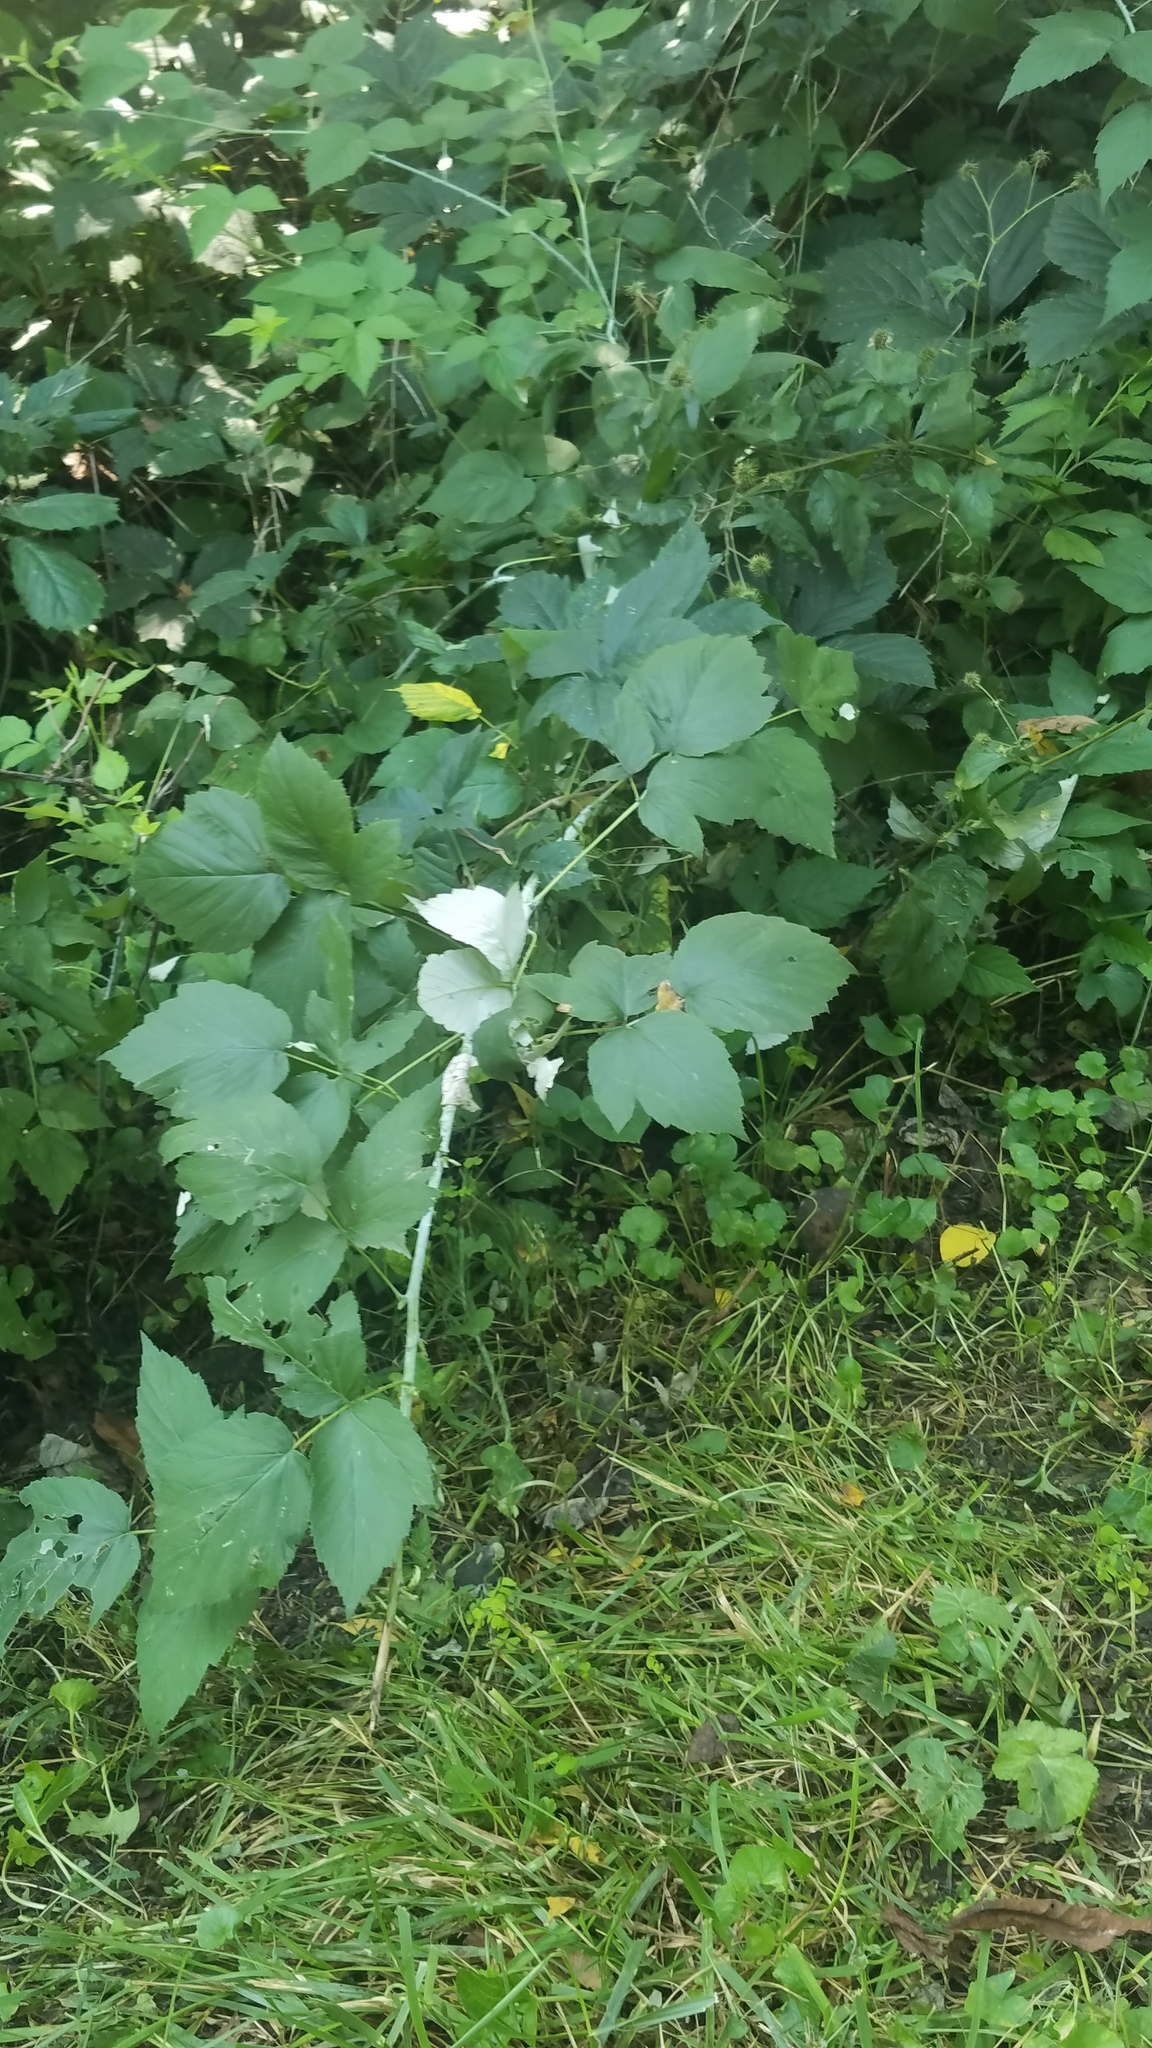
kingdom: Plantae
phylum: Tracheophyta
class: Magnoliopsida
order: Rosales
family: Rosaceae
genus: Rubus
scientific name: Rubus occidentalis
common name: Black raspberry
